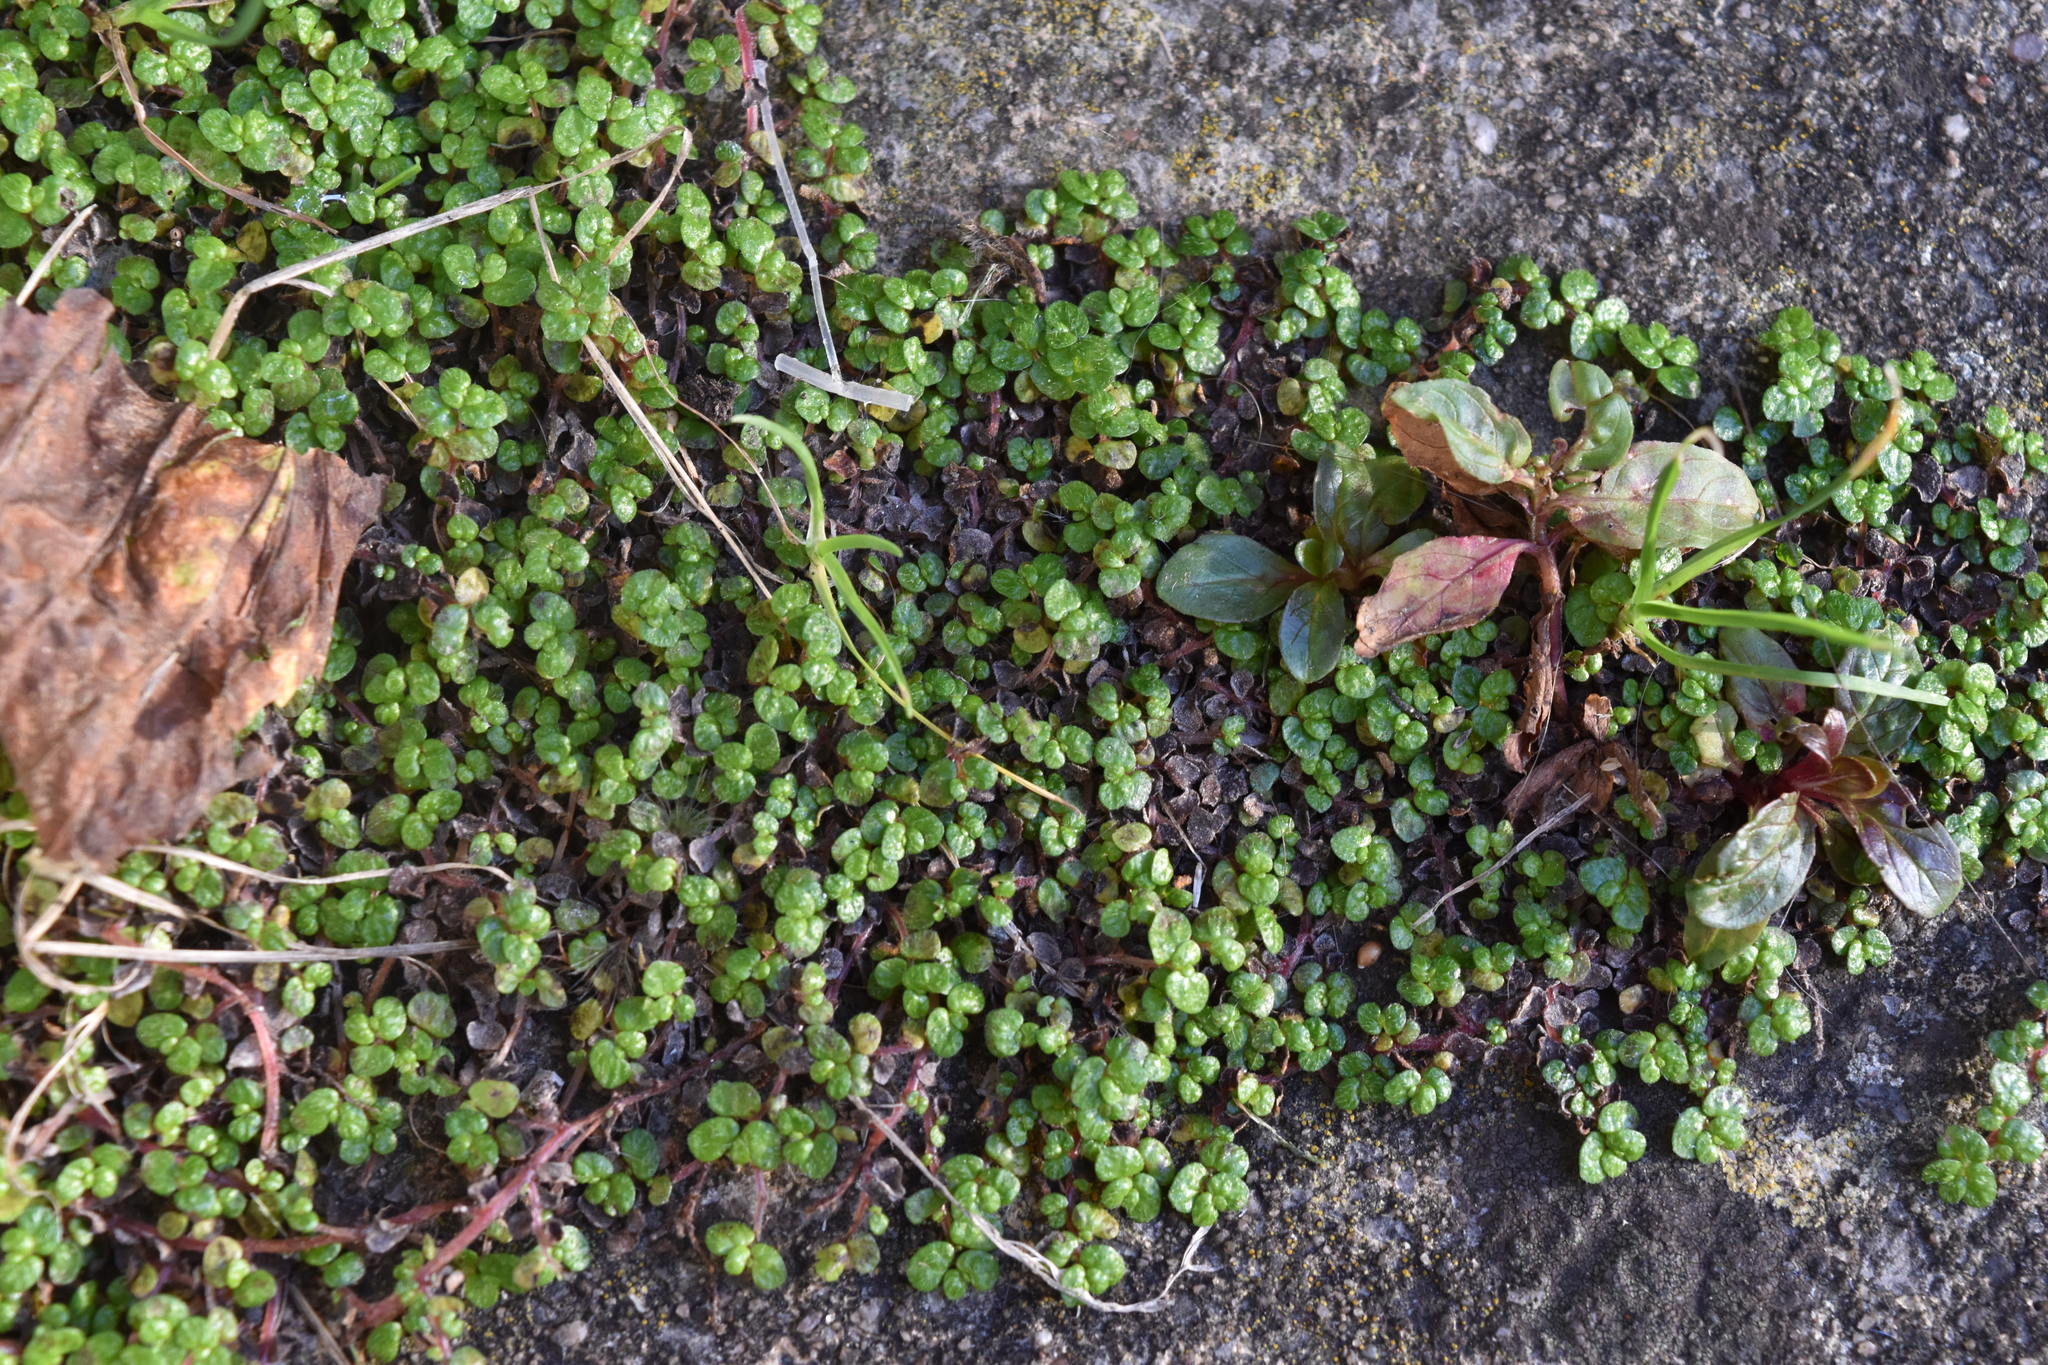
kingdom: Plantae
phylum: Tracheophyta
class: Magnoliopsida
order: Rosales
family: Urticaceae
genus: Soleirolia
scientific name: Soleirolia soleirolii
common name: Mind-your-own-business
